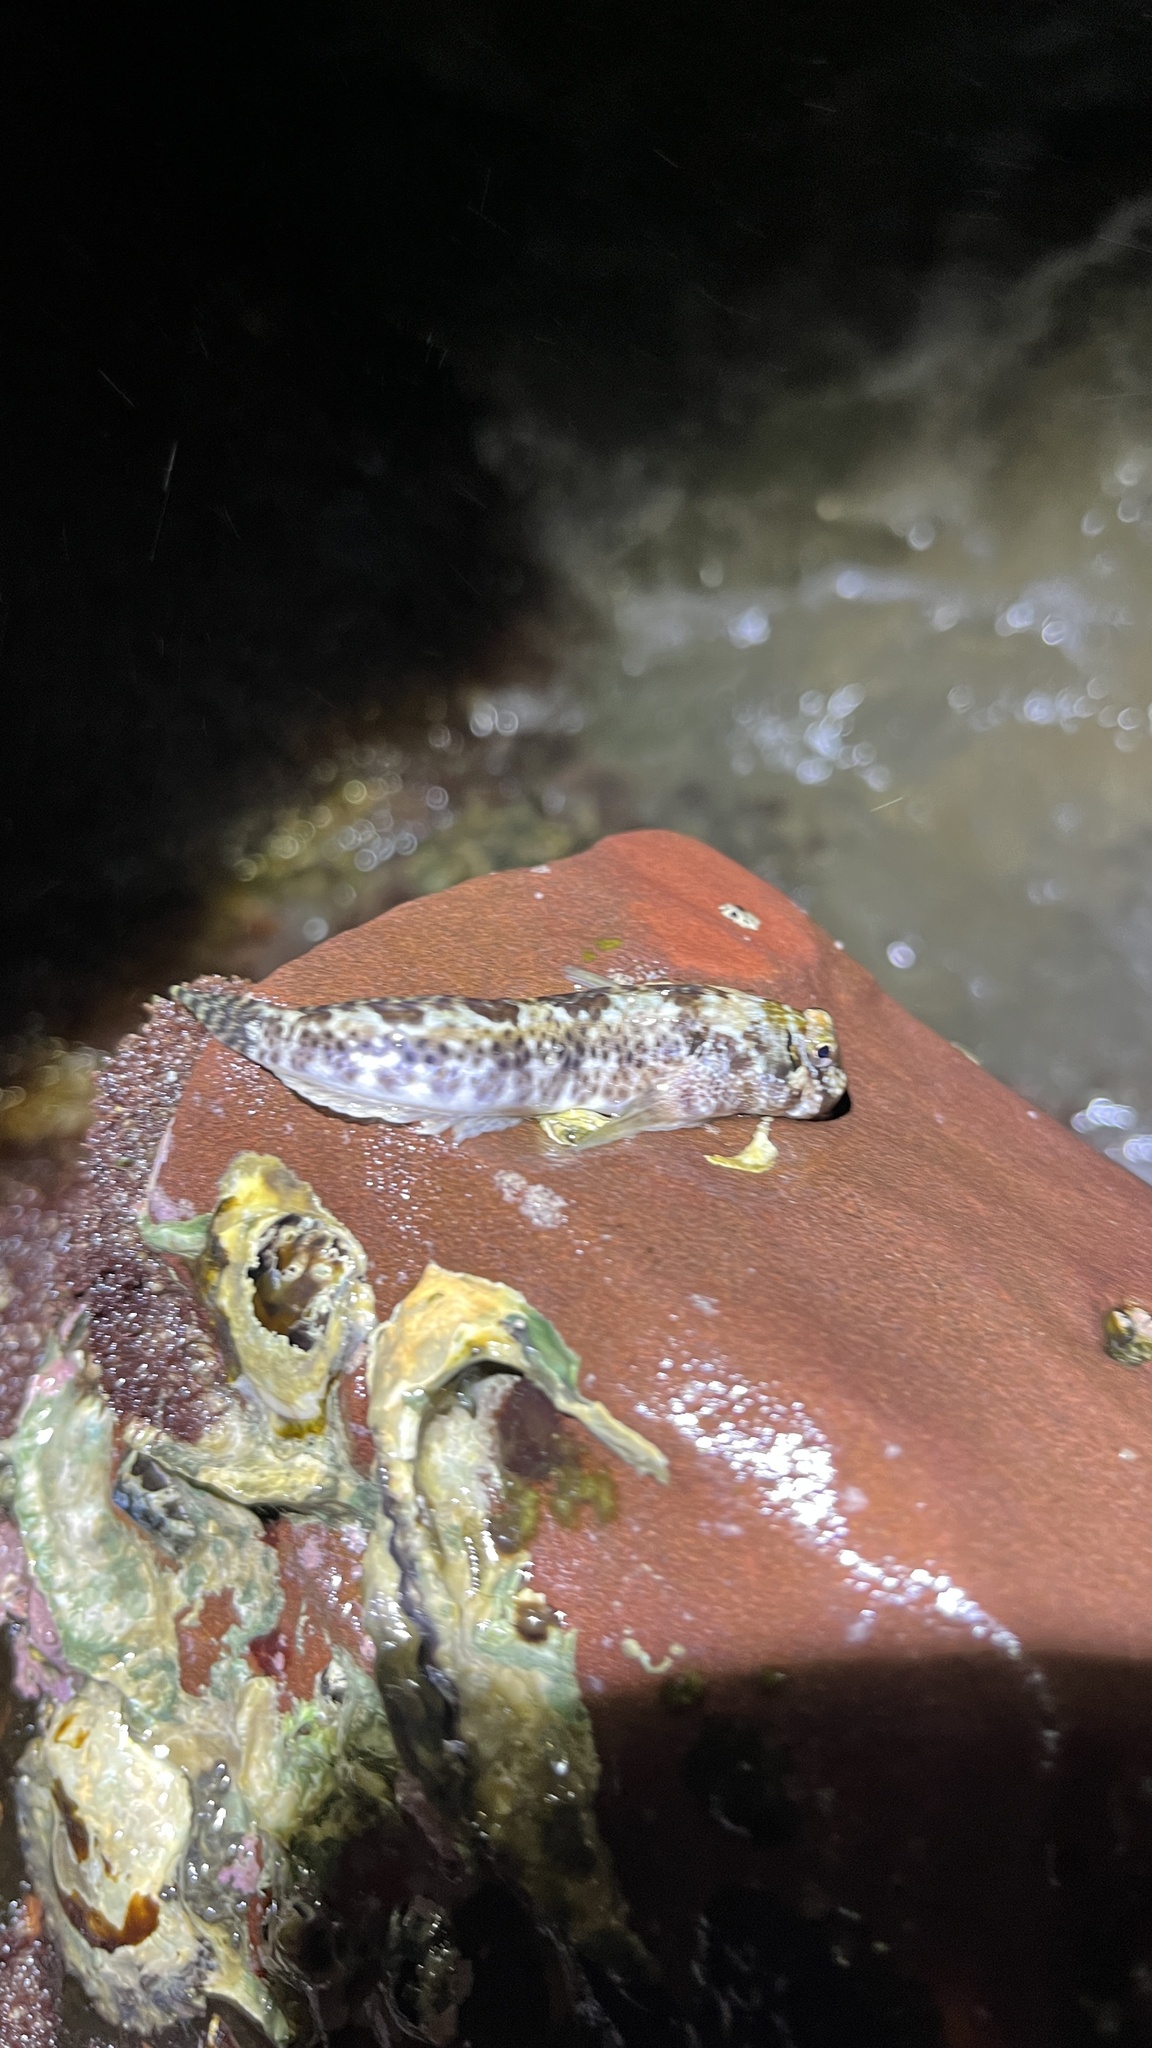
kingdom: Animalia
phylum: Chordata
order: Perciformes
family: Blenniidae
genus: Entomacrodus
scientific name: Entomacrodus striatus
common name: Pearly rockskipper
